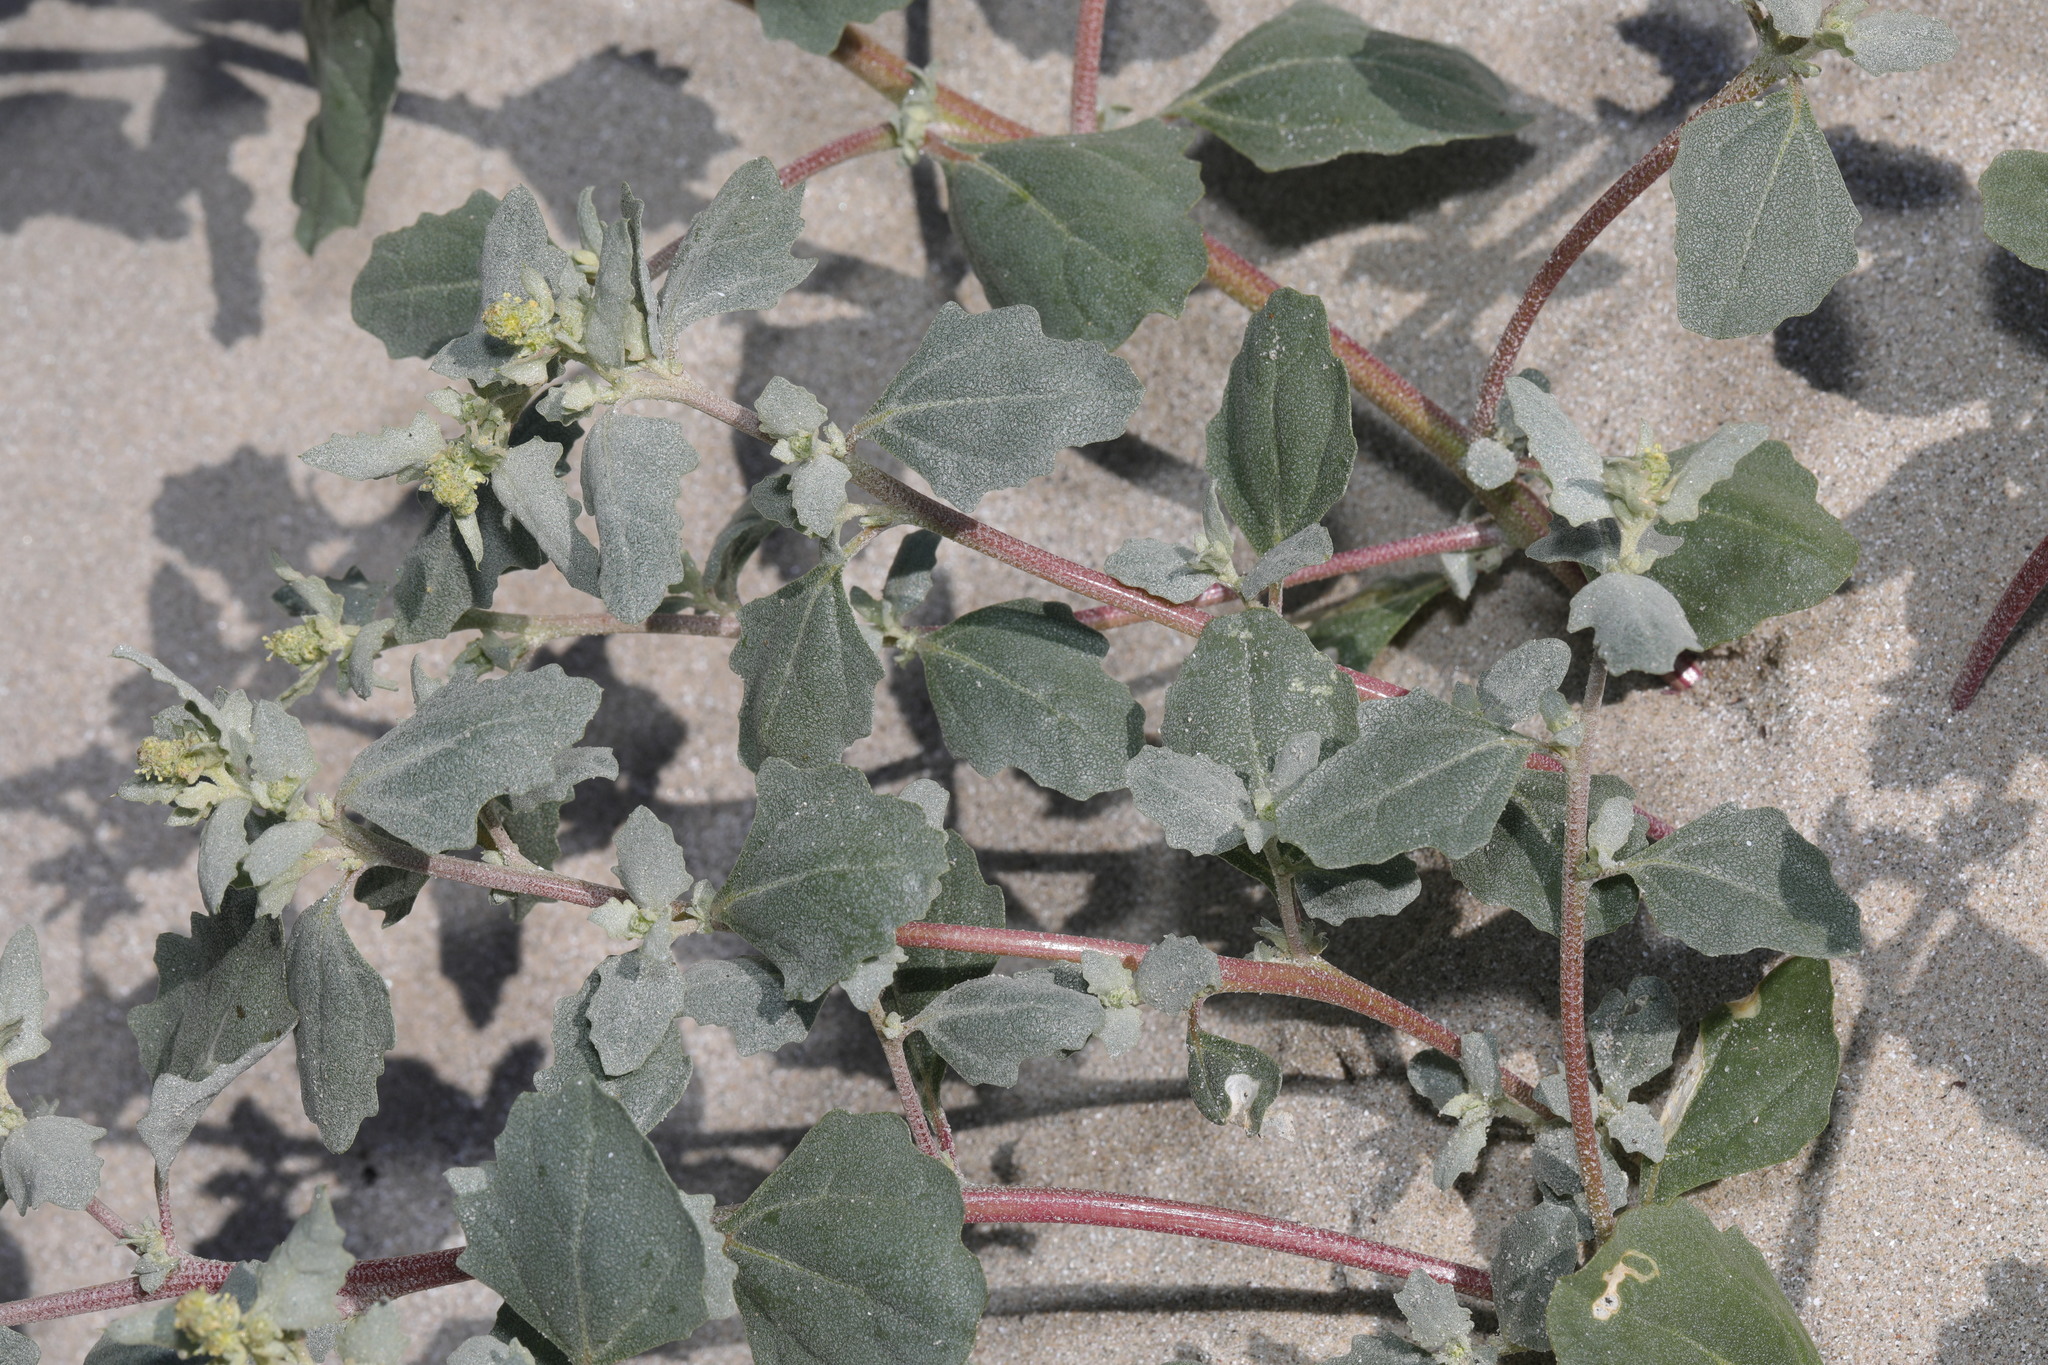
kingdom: Plantae
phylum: Tracheophyta
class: Magnoliopsida
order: Caryophyllales
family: Amaranthaceae
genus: Atriplex
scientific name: Atriplex laciniata
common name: Frosted orache
